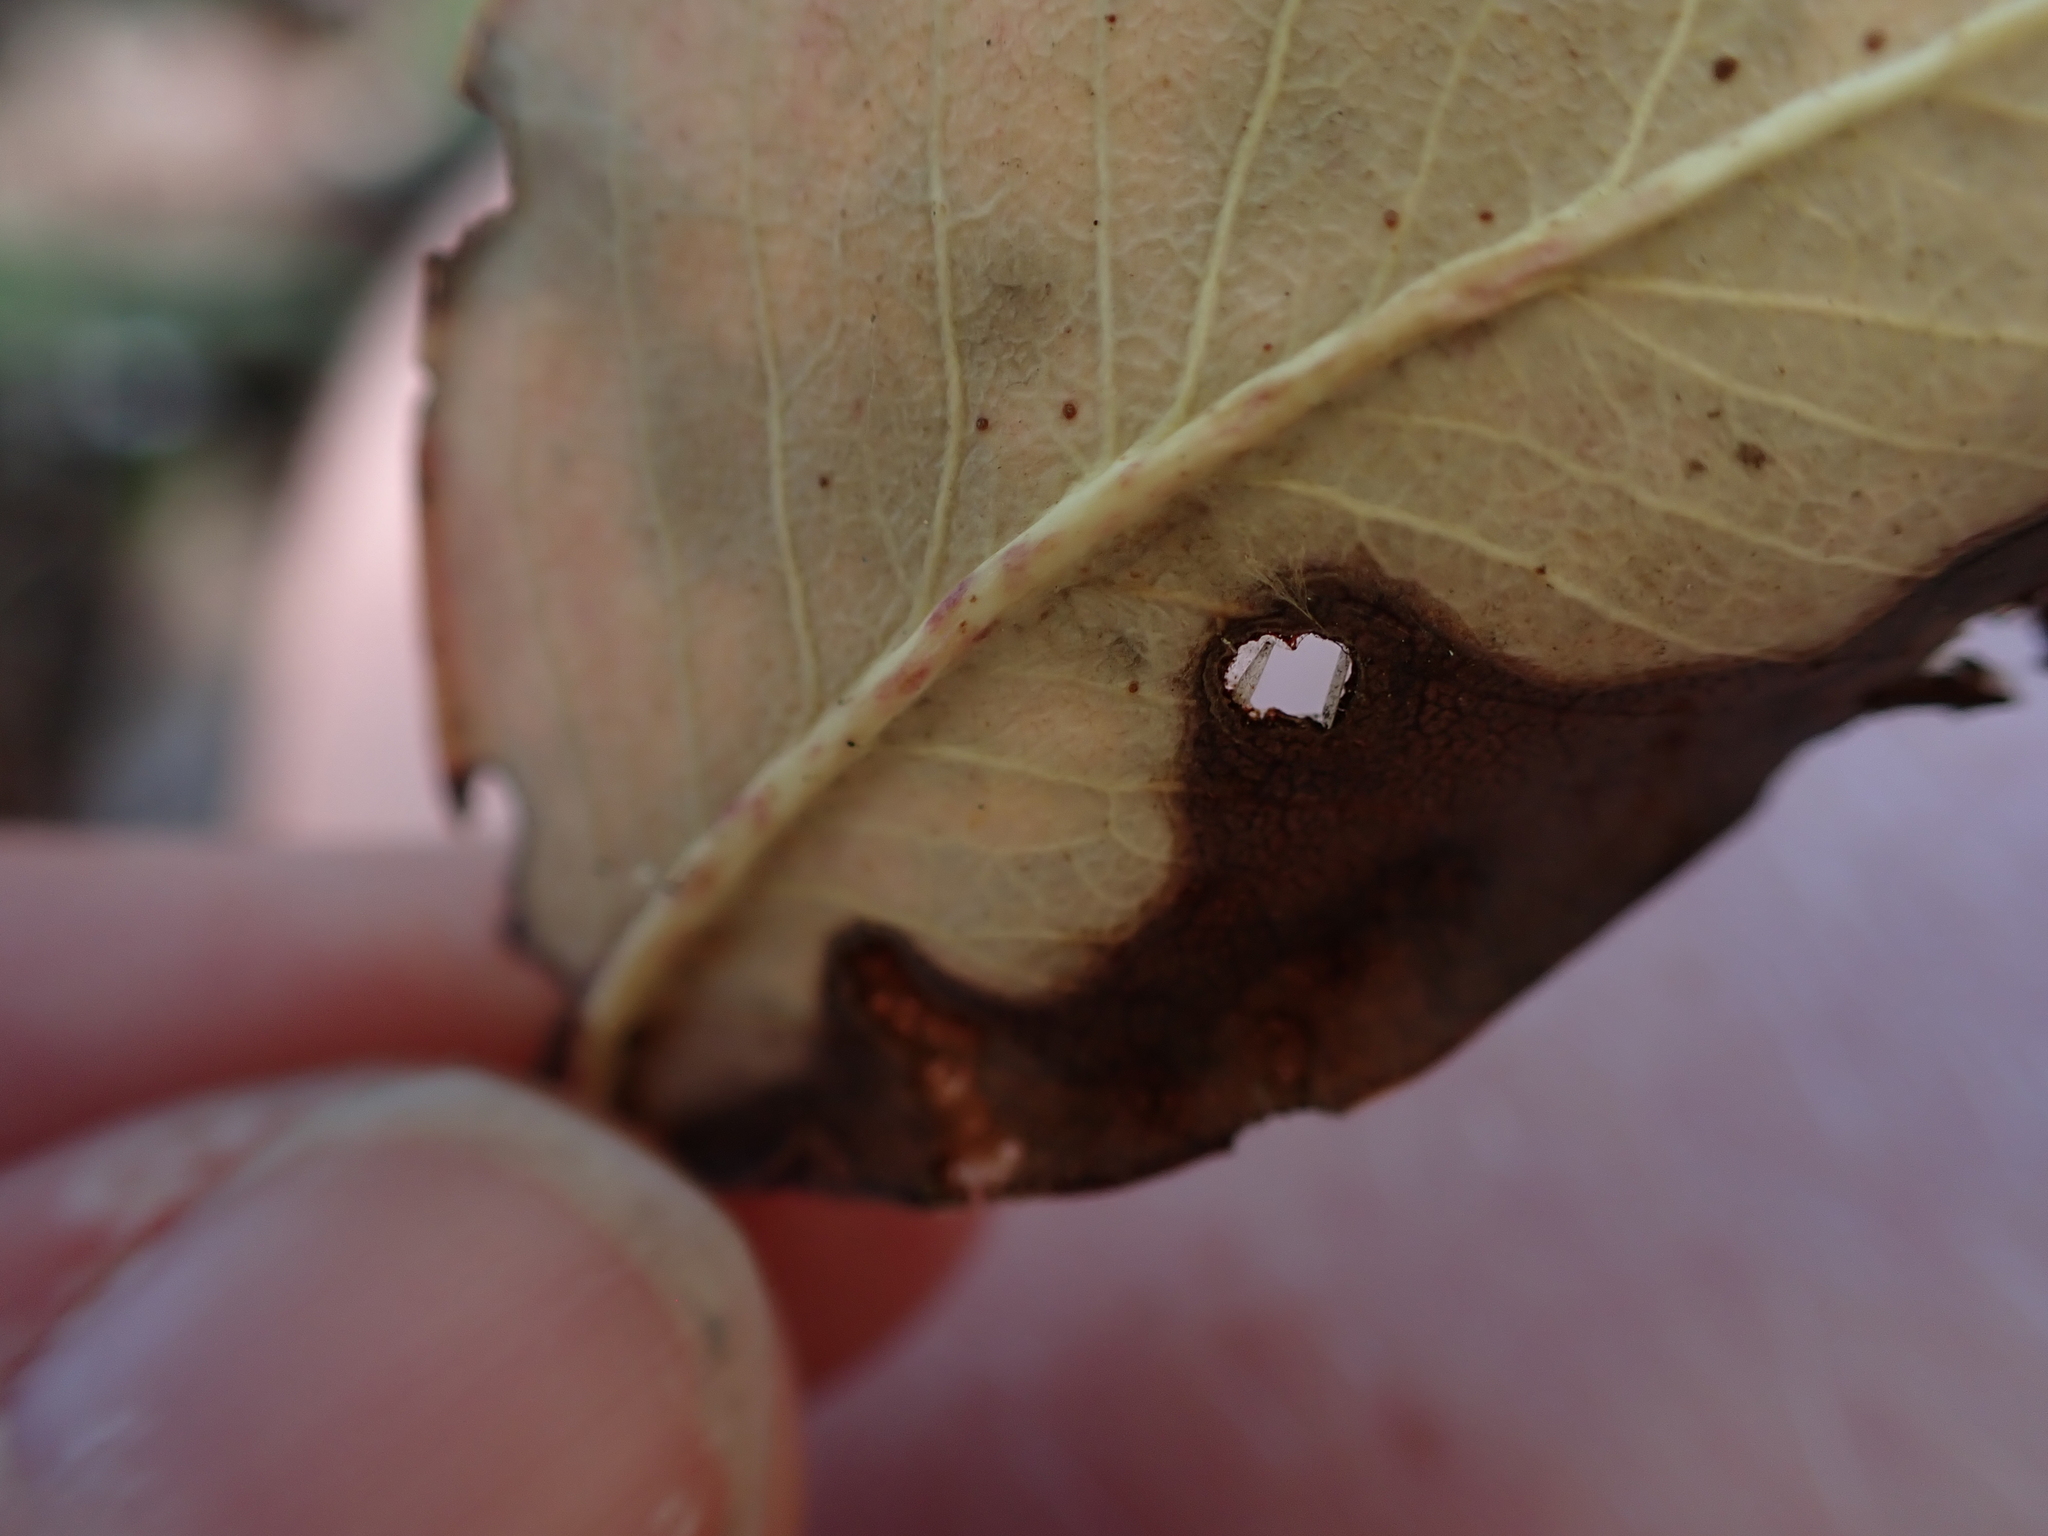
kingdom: Animalia
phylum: Arthropoda
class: Insecta
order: Lepidoptera
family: Gracillariidae
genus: Marmara
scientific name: Marmara arbutiella
